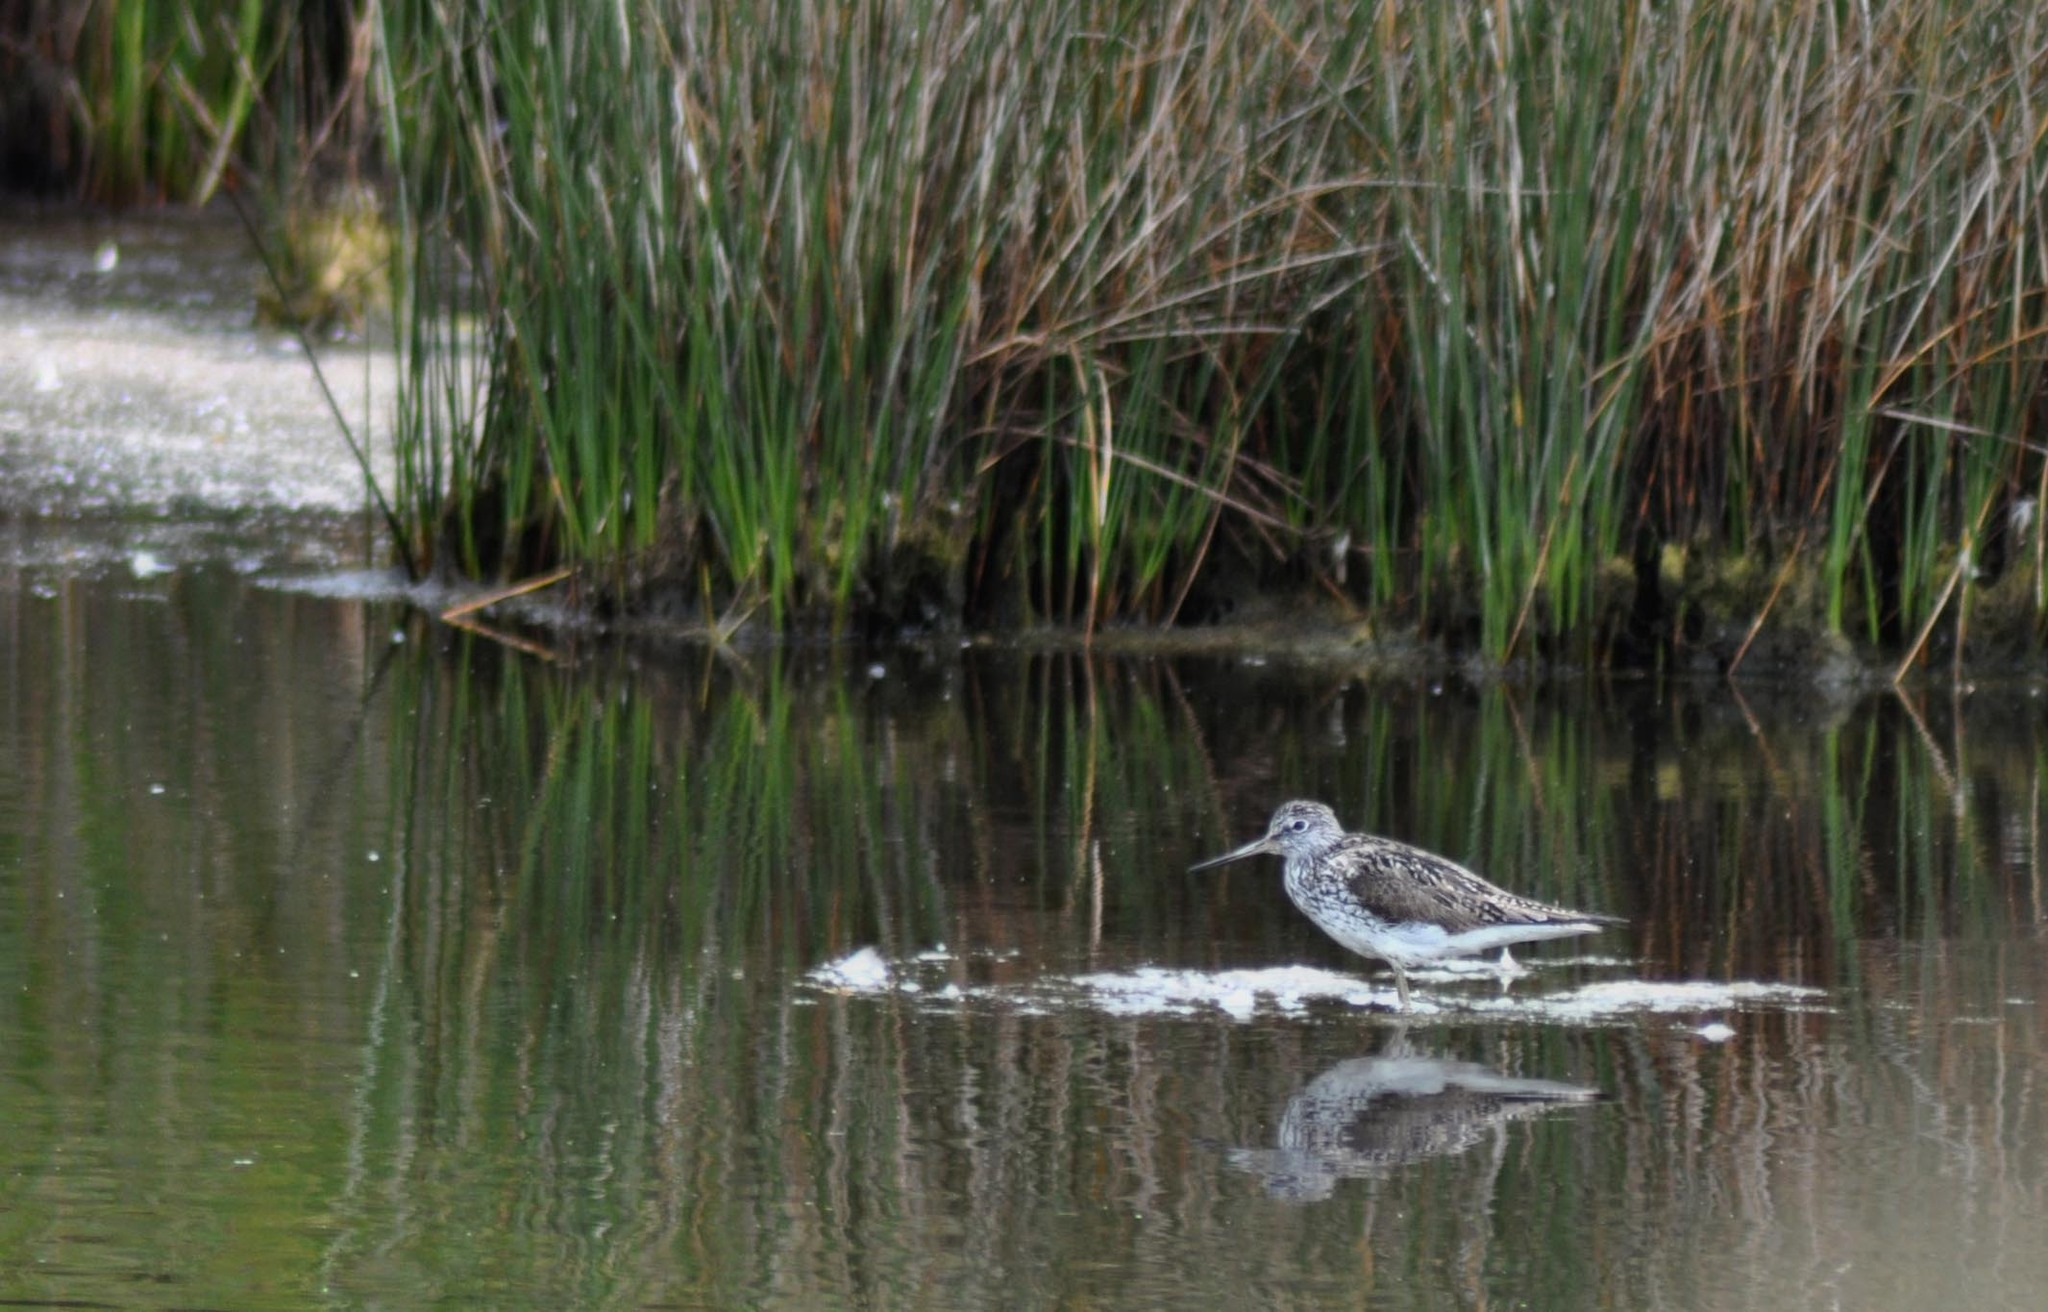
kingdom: Animalia
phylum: Chordata
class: Aves
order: Charadriiformes
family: Scolopacidae
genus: Tringa
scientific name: Tringa nebularia
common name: Common greenshank
